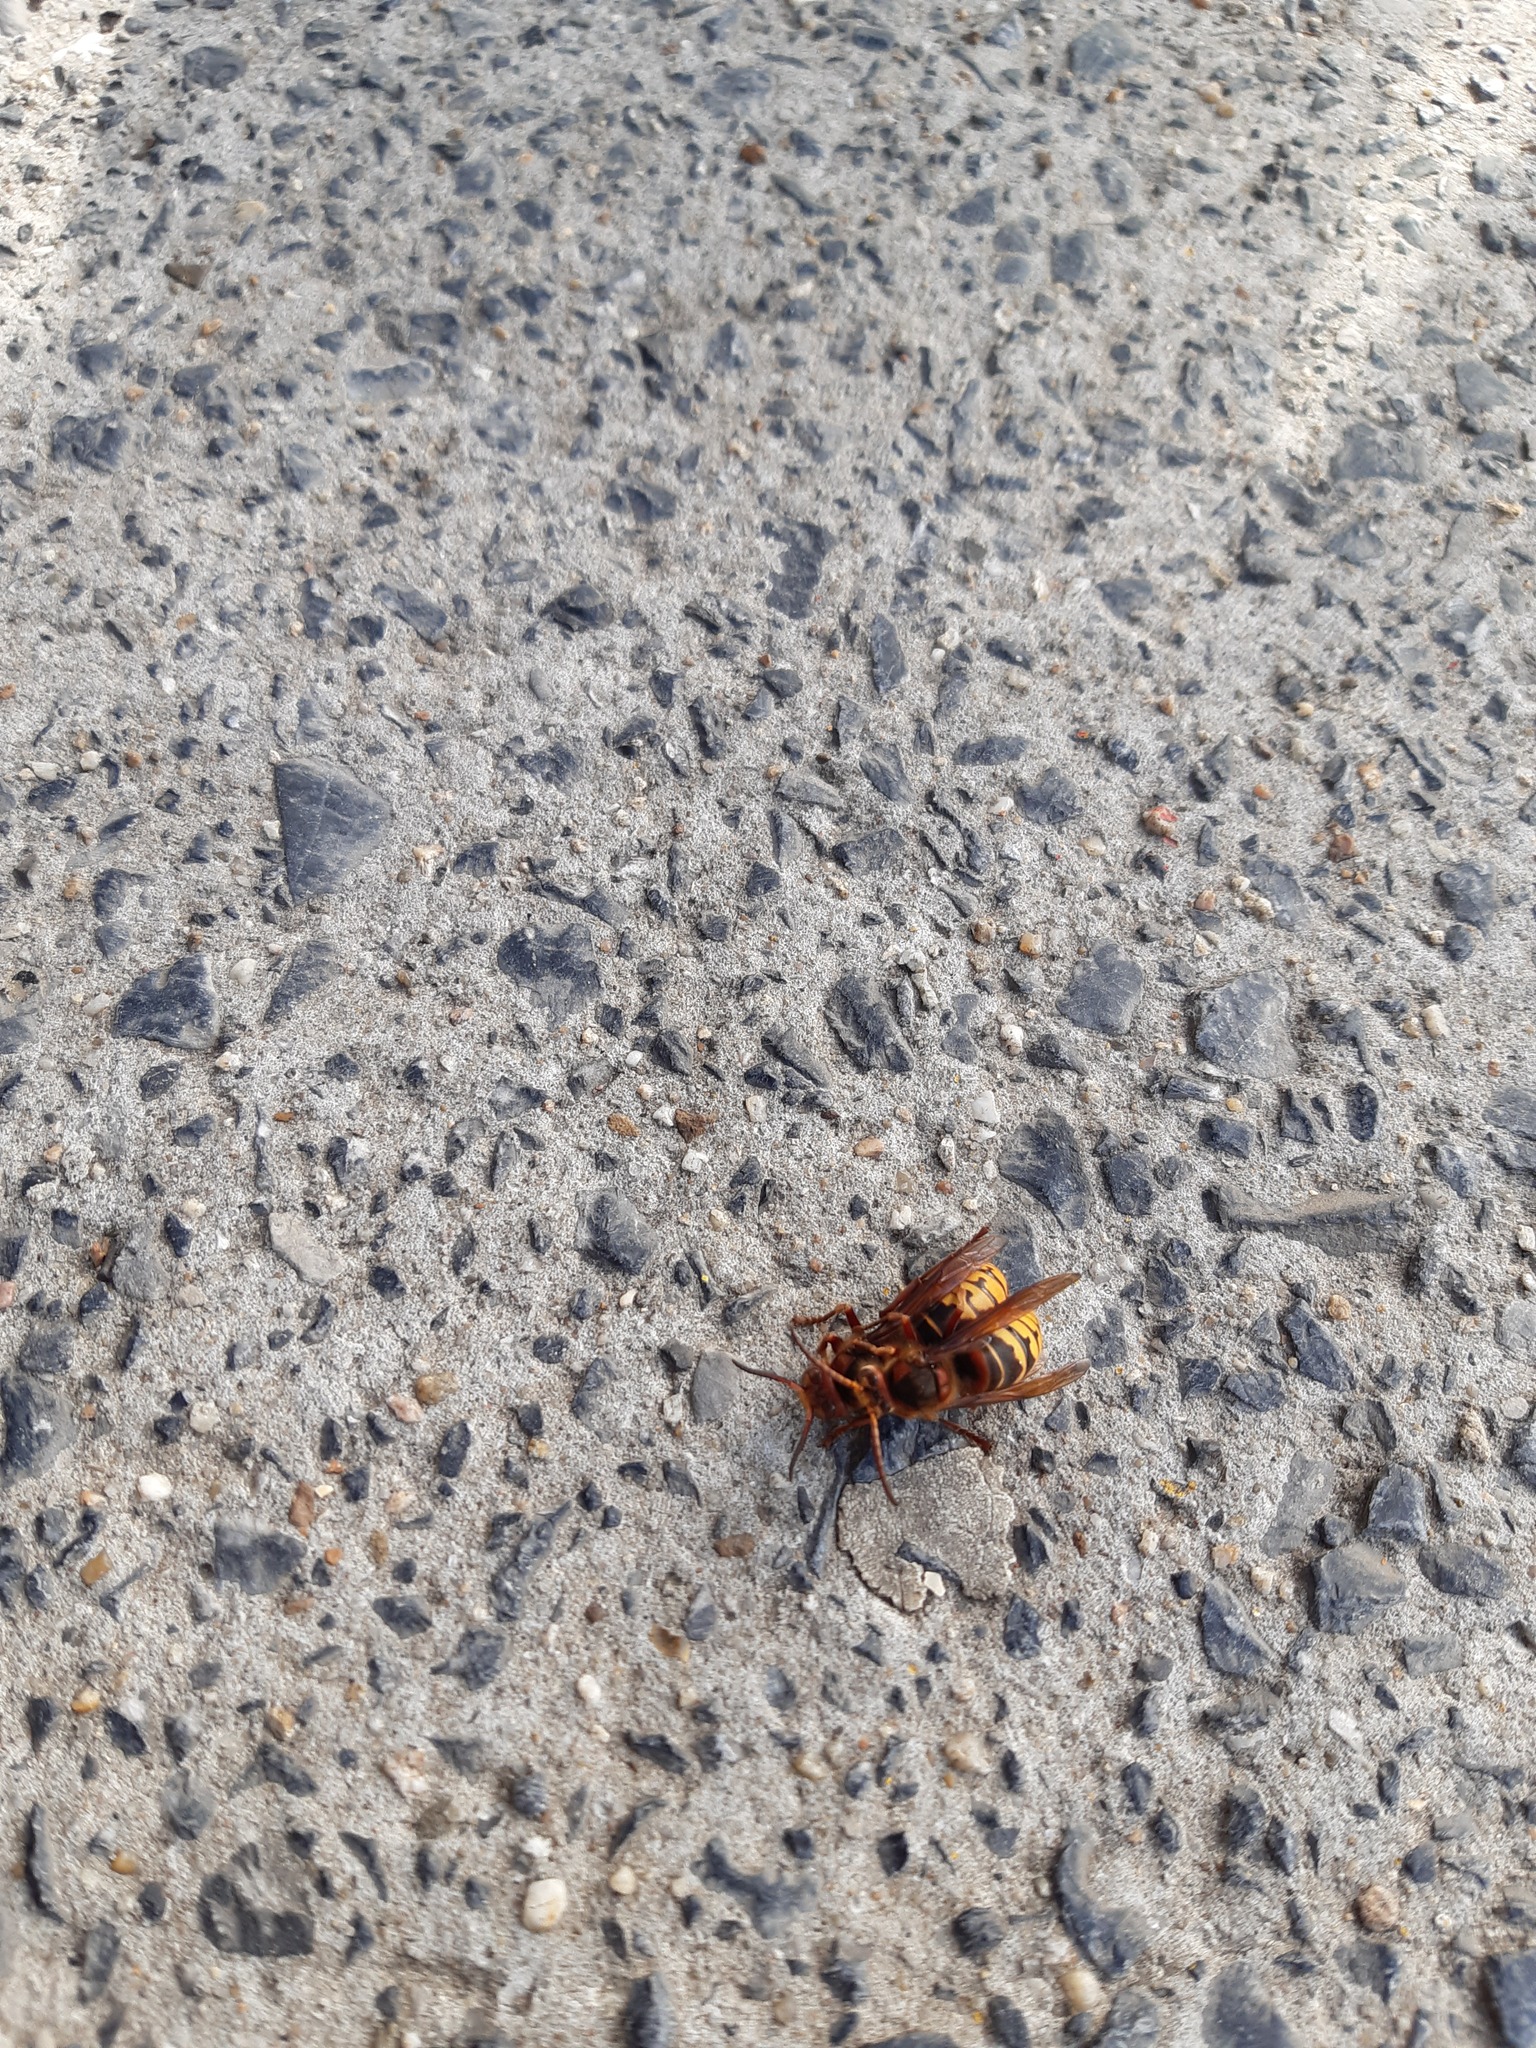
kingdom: Animalia
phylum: Arthropoda
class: Insecta
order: Hymenoptera
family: Vespidae
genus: Vespa
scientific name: Vespa crabro
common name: Hornet
